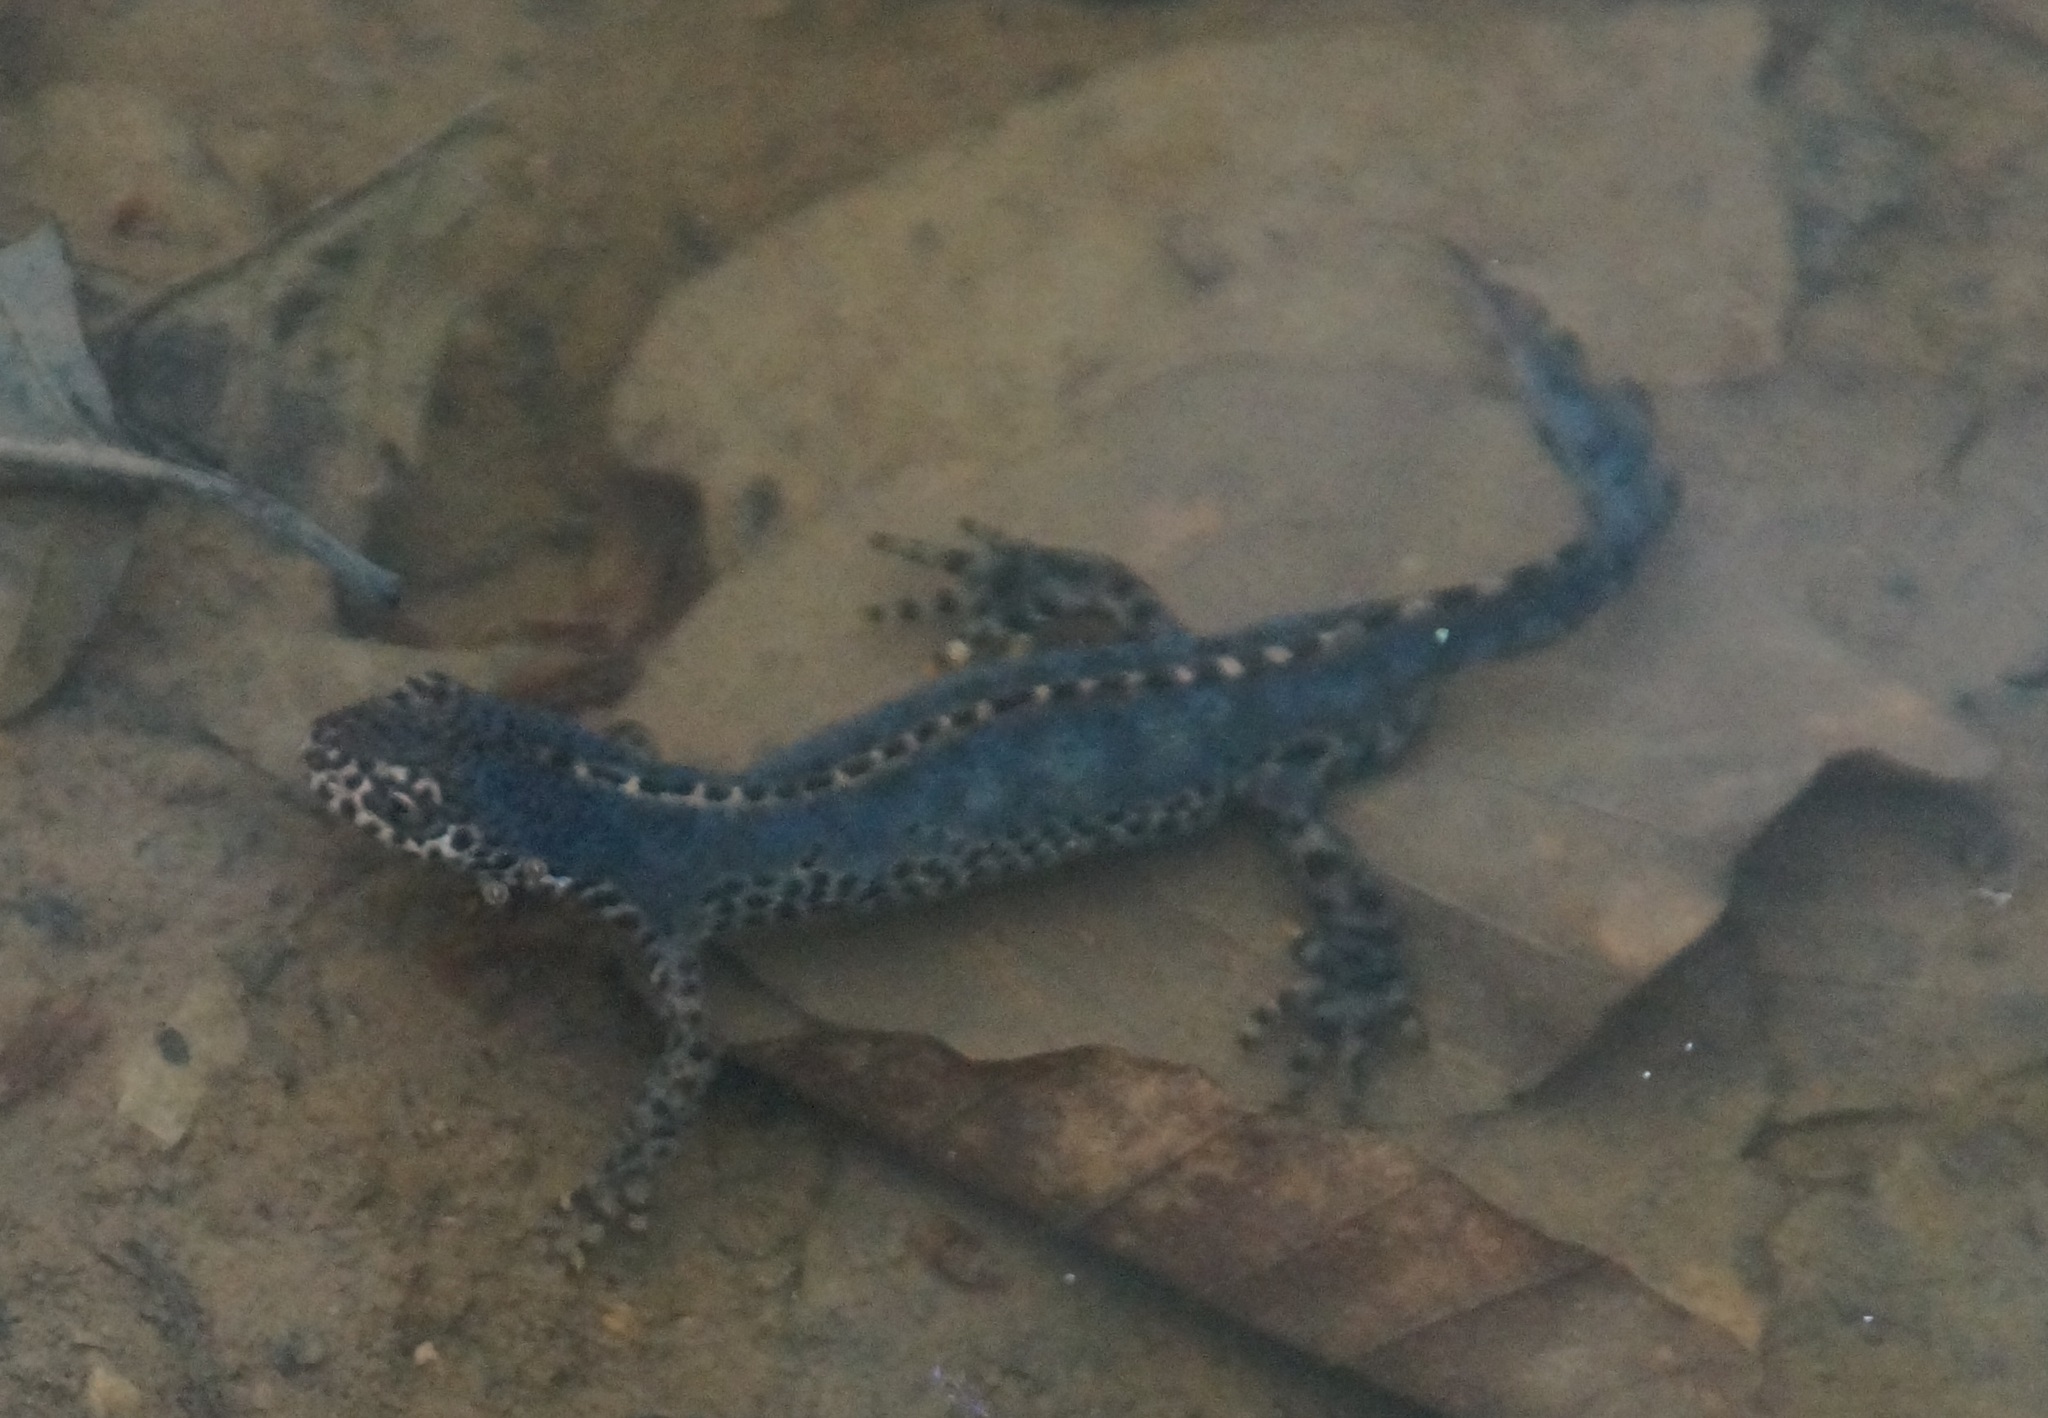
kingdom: Animalia
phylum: Chordata
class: Amphibia
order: Caudata
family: Salamandridae
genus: Ichthyosaura
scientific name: Ichthyosaura alpestris
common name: Alpine newt
